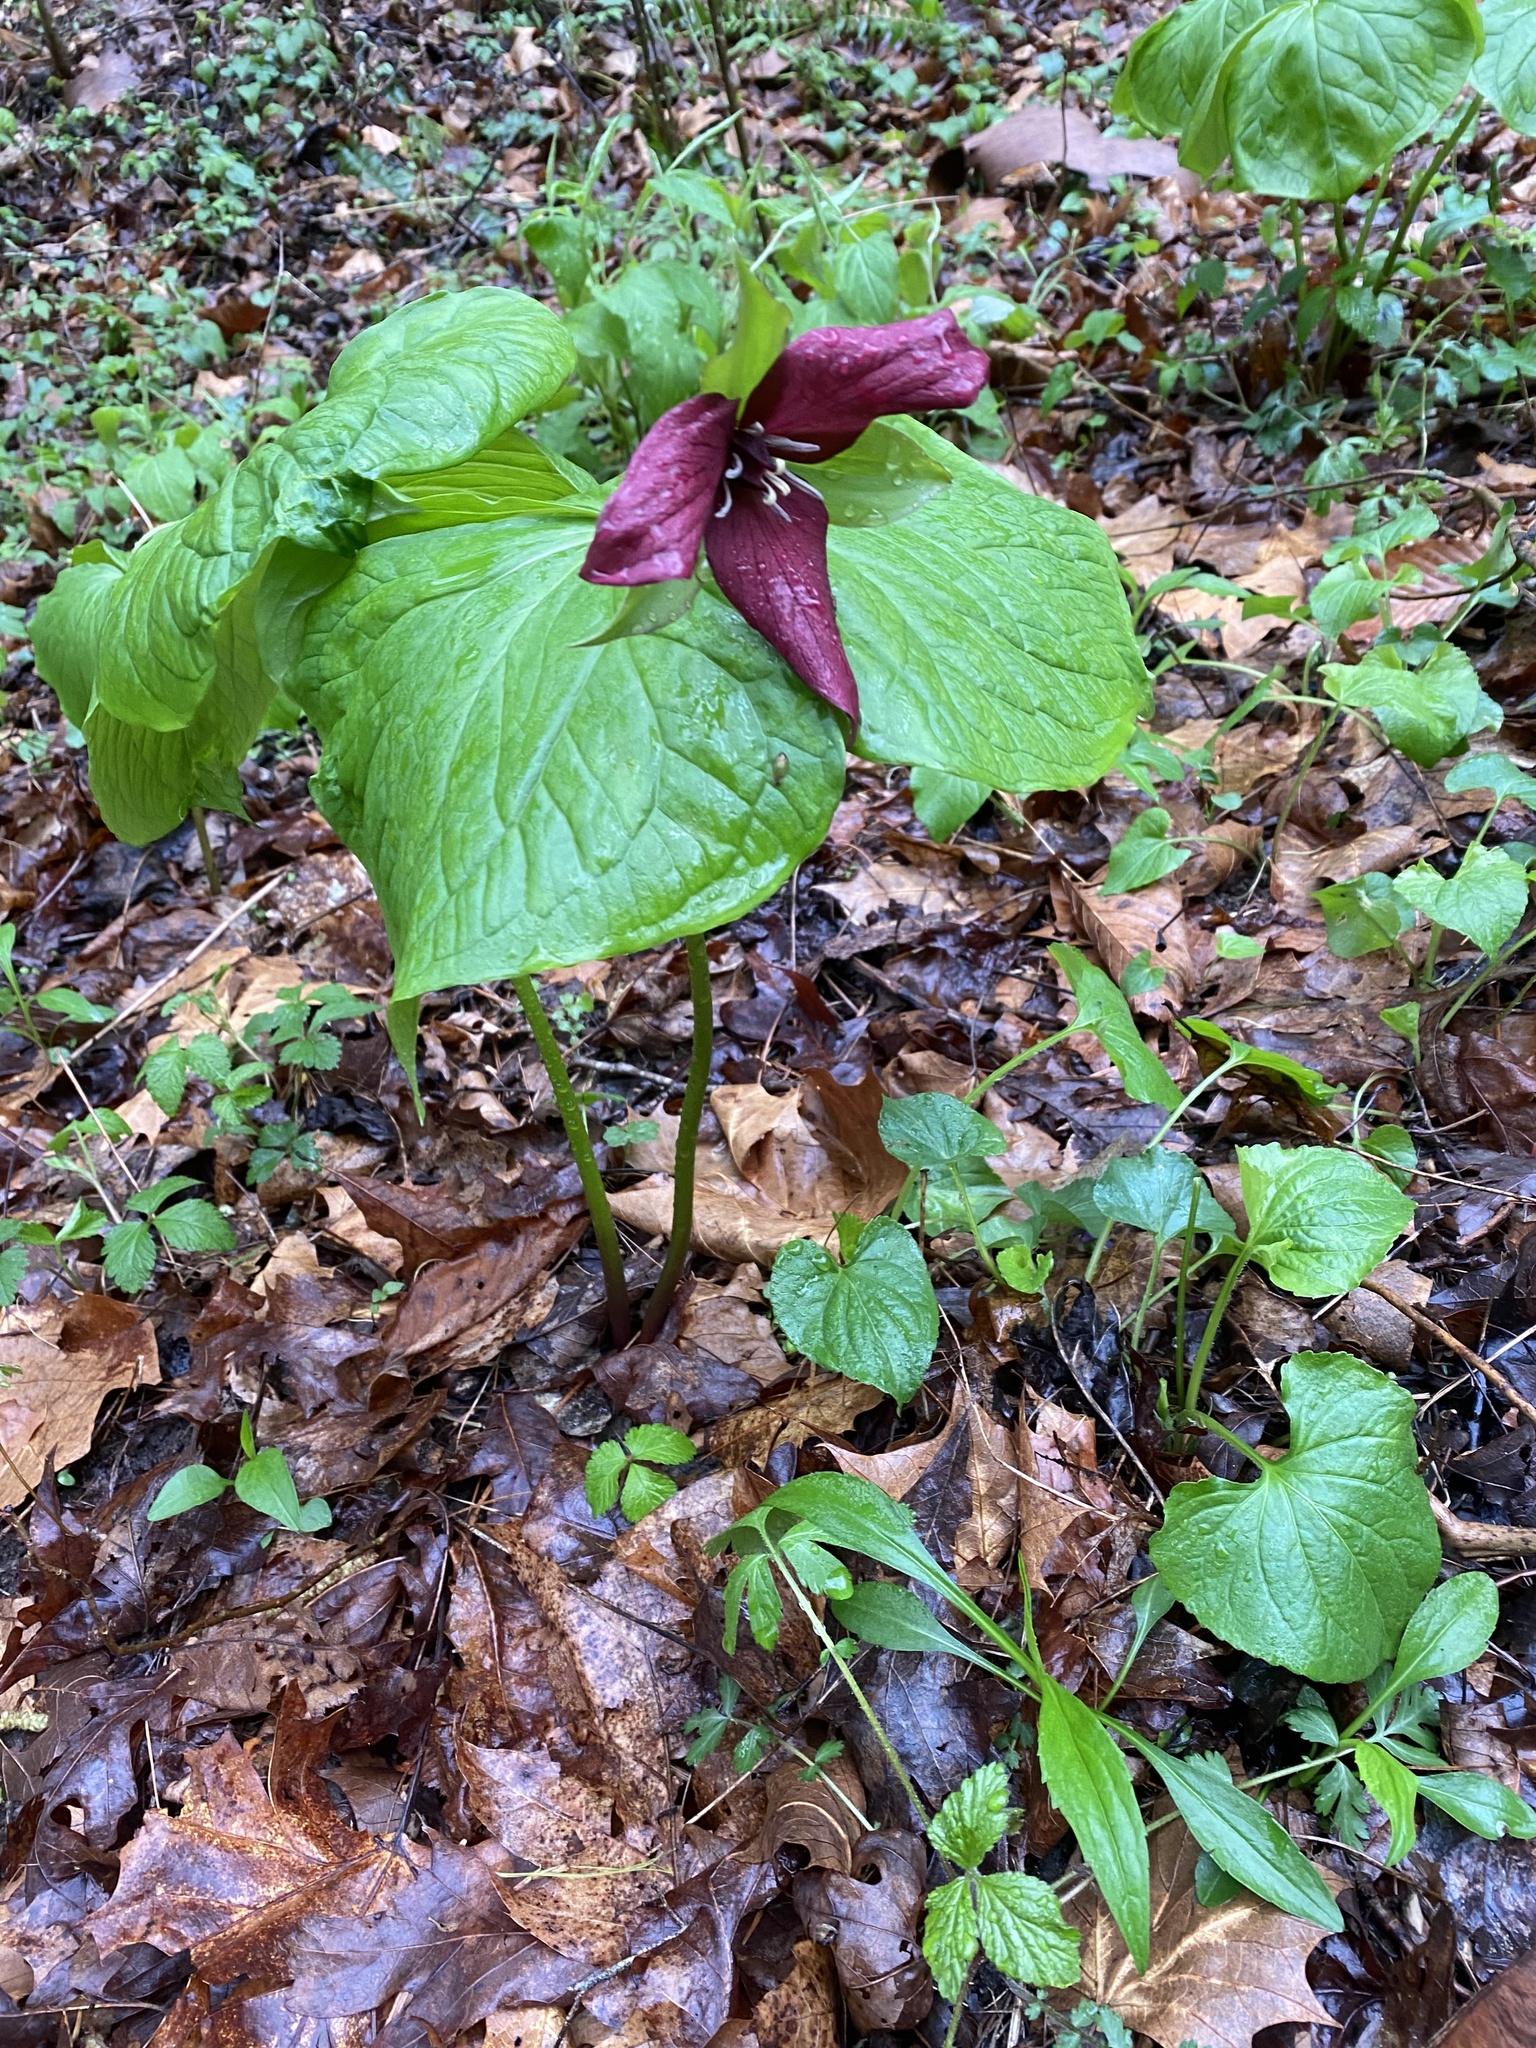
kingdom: Plantae
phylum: Tracheophyta
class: Liliopsida
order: Liliales
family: Melanthiaceae
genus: Trillium
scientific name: Trillium erectum
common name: Purple trillium
